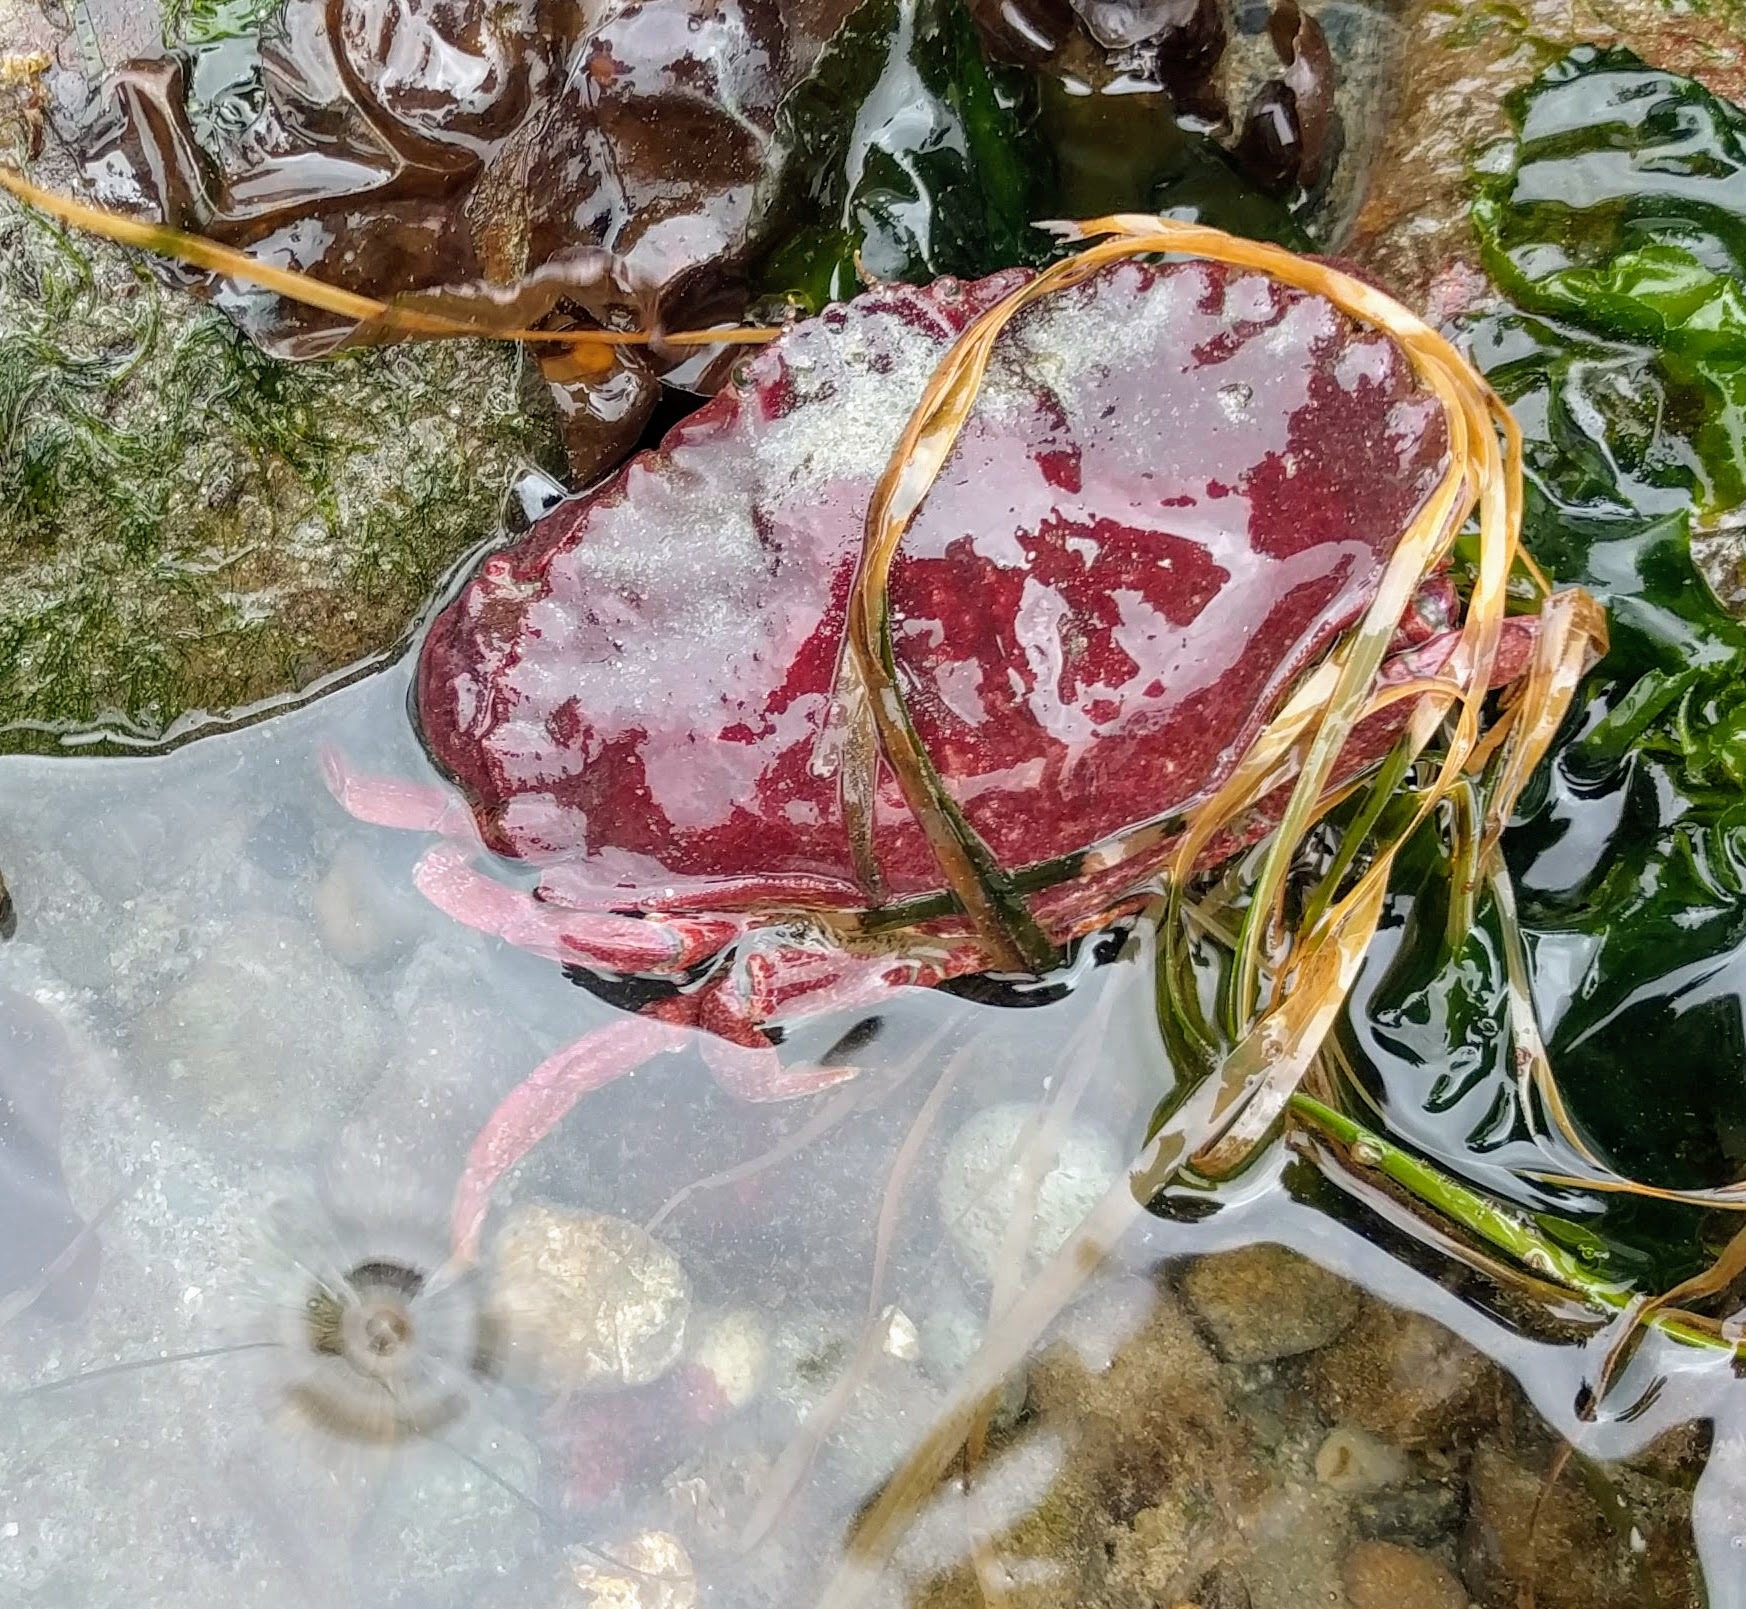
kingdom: Animalia
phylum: Arthropoda
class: Malacostraca
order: Decapoda
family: Cancridae
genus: Cancer
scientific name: Cancer productus
